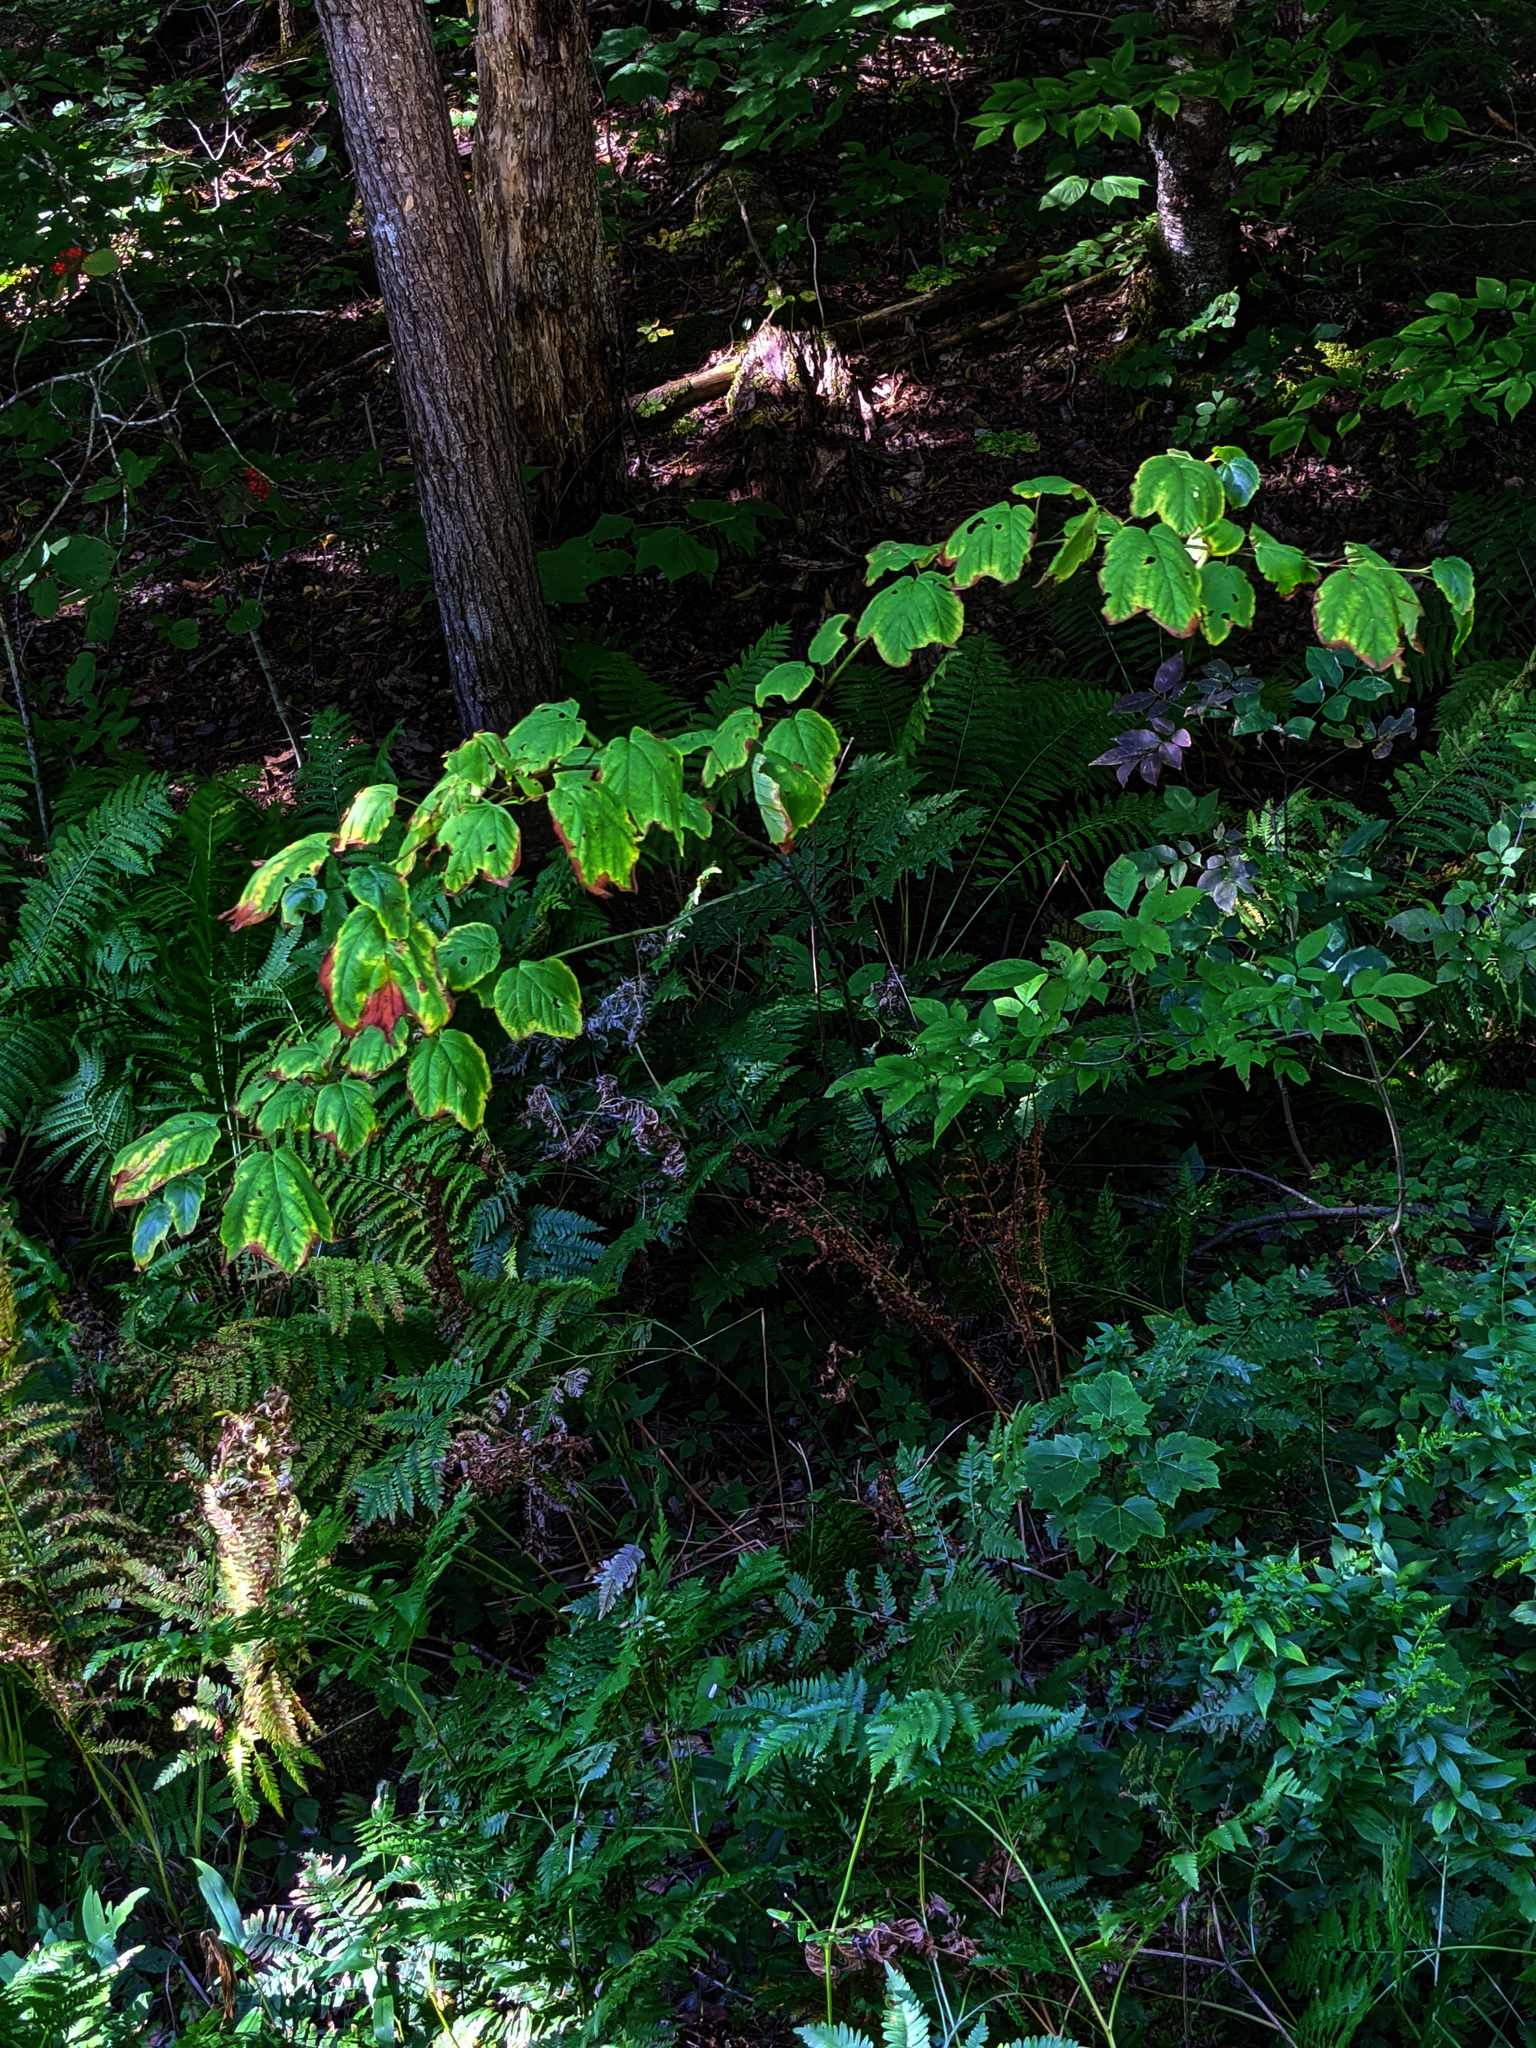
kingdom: Plantae
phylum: Tracheophyta
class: Magnoliopsida
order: Sapindales
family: Sapindaceae
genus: Acer
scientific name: Acer pensylvanicum
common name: Moosewood
